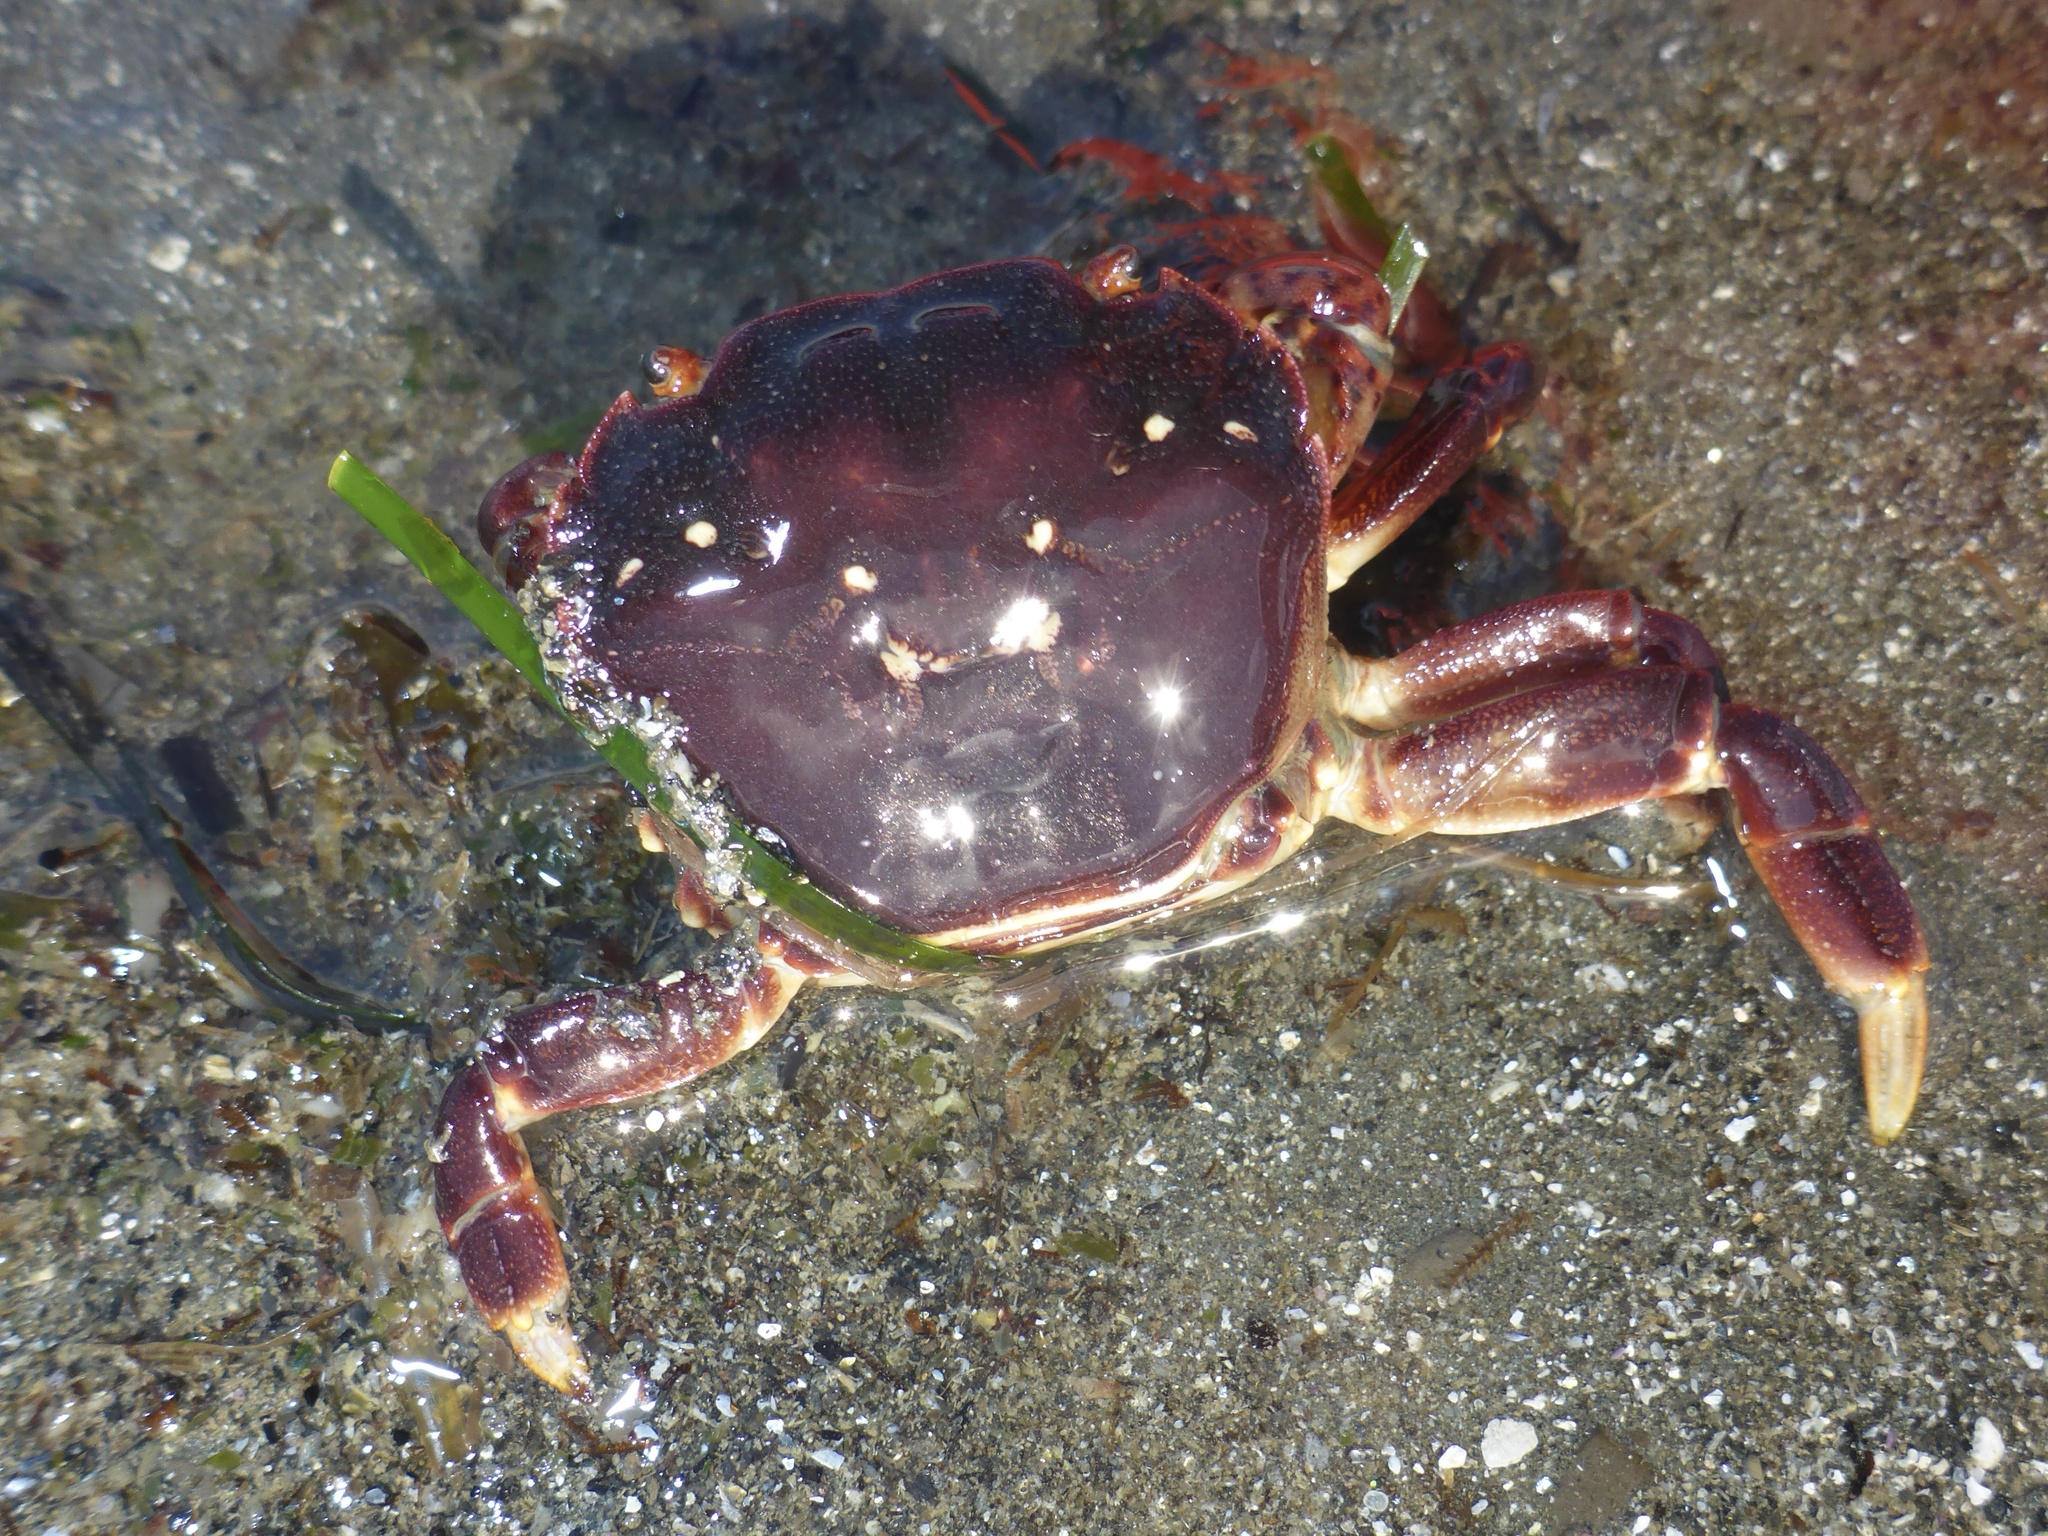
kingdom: Animalia
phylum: Arthropoda
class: Malacostraca
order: Decapoda
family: Varunidae
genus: Hemigrapsus
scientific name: Hemigrapsus nudus
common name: Purple shore crab
